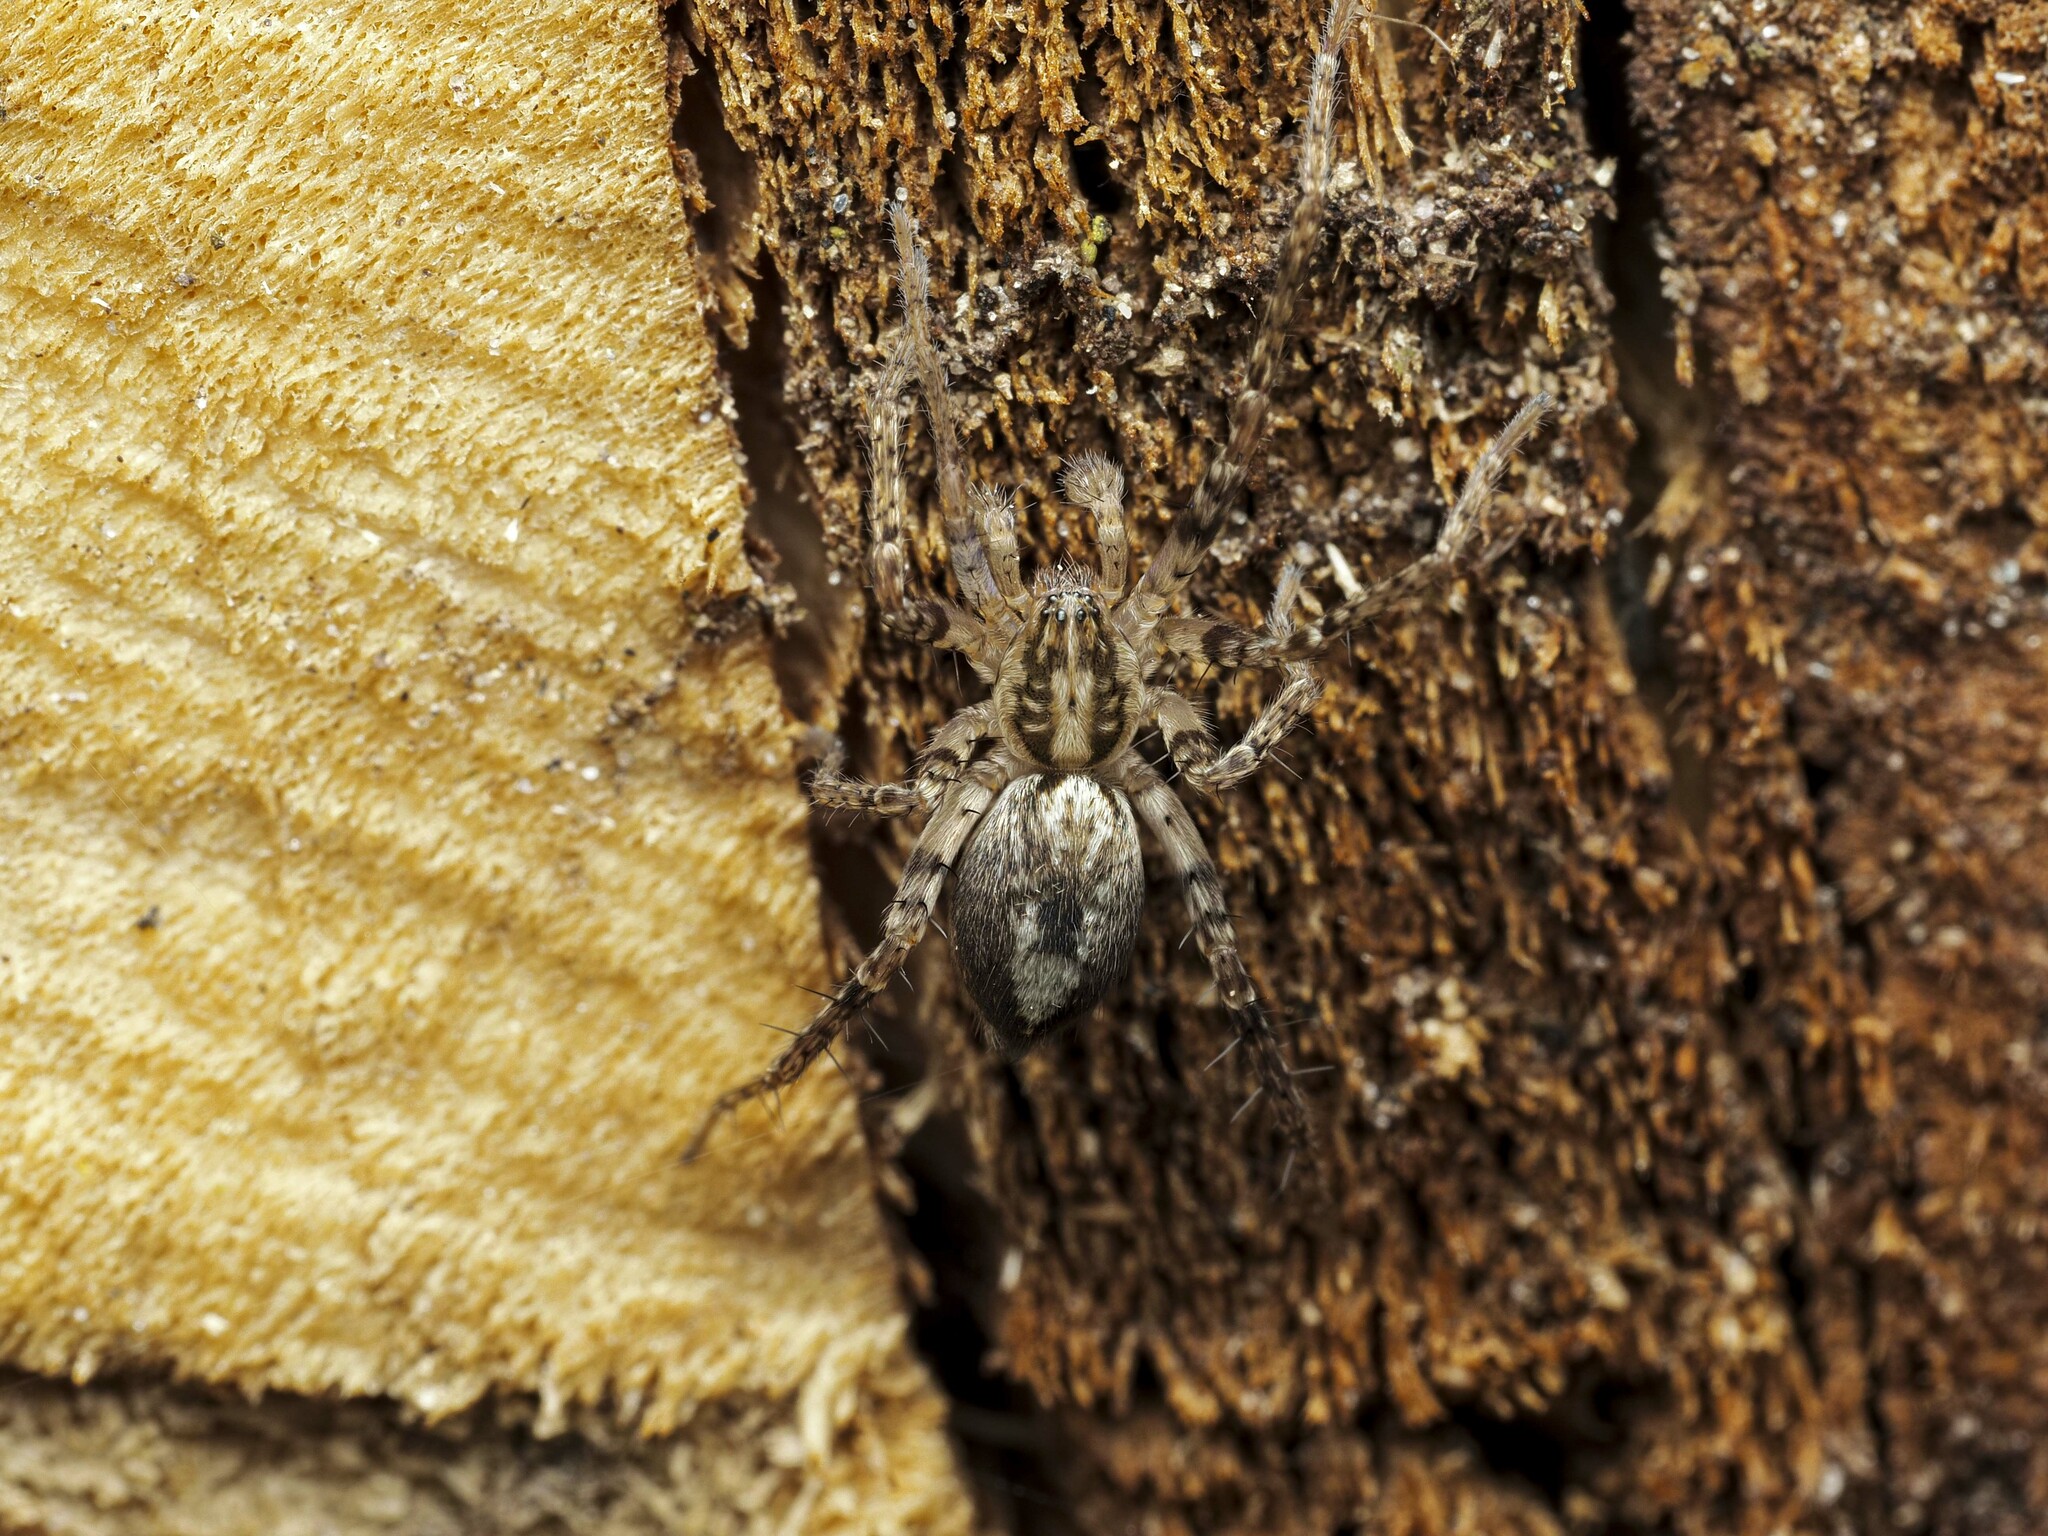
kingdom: Animalia
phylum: Arthropoda
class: Arachnida
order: Araneae
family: Anyphaenidae
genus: Anyphaena
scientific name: Anyphaena accentuata
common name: Buzzing spider
